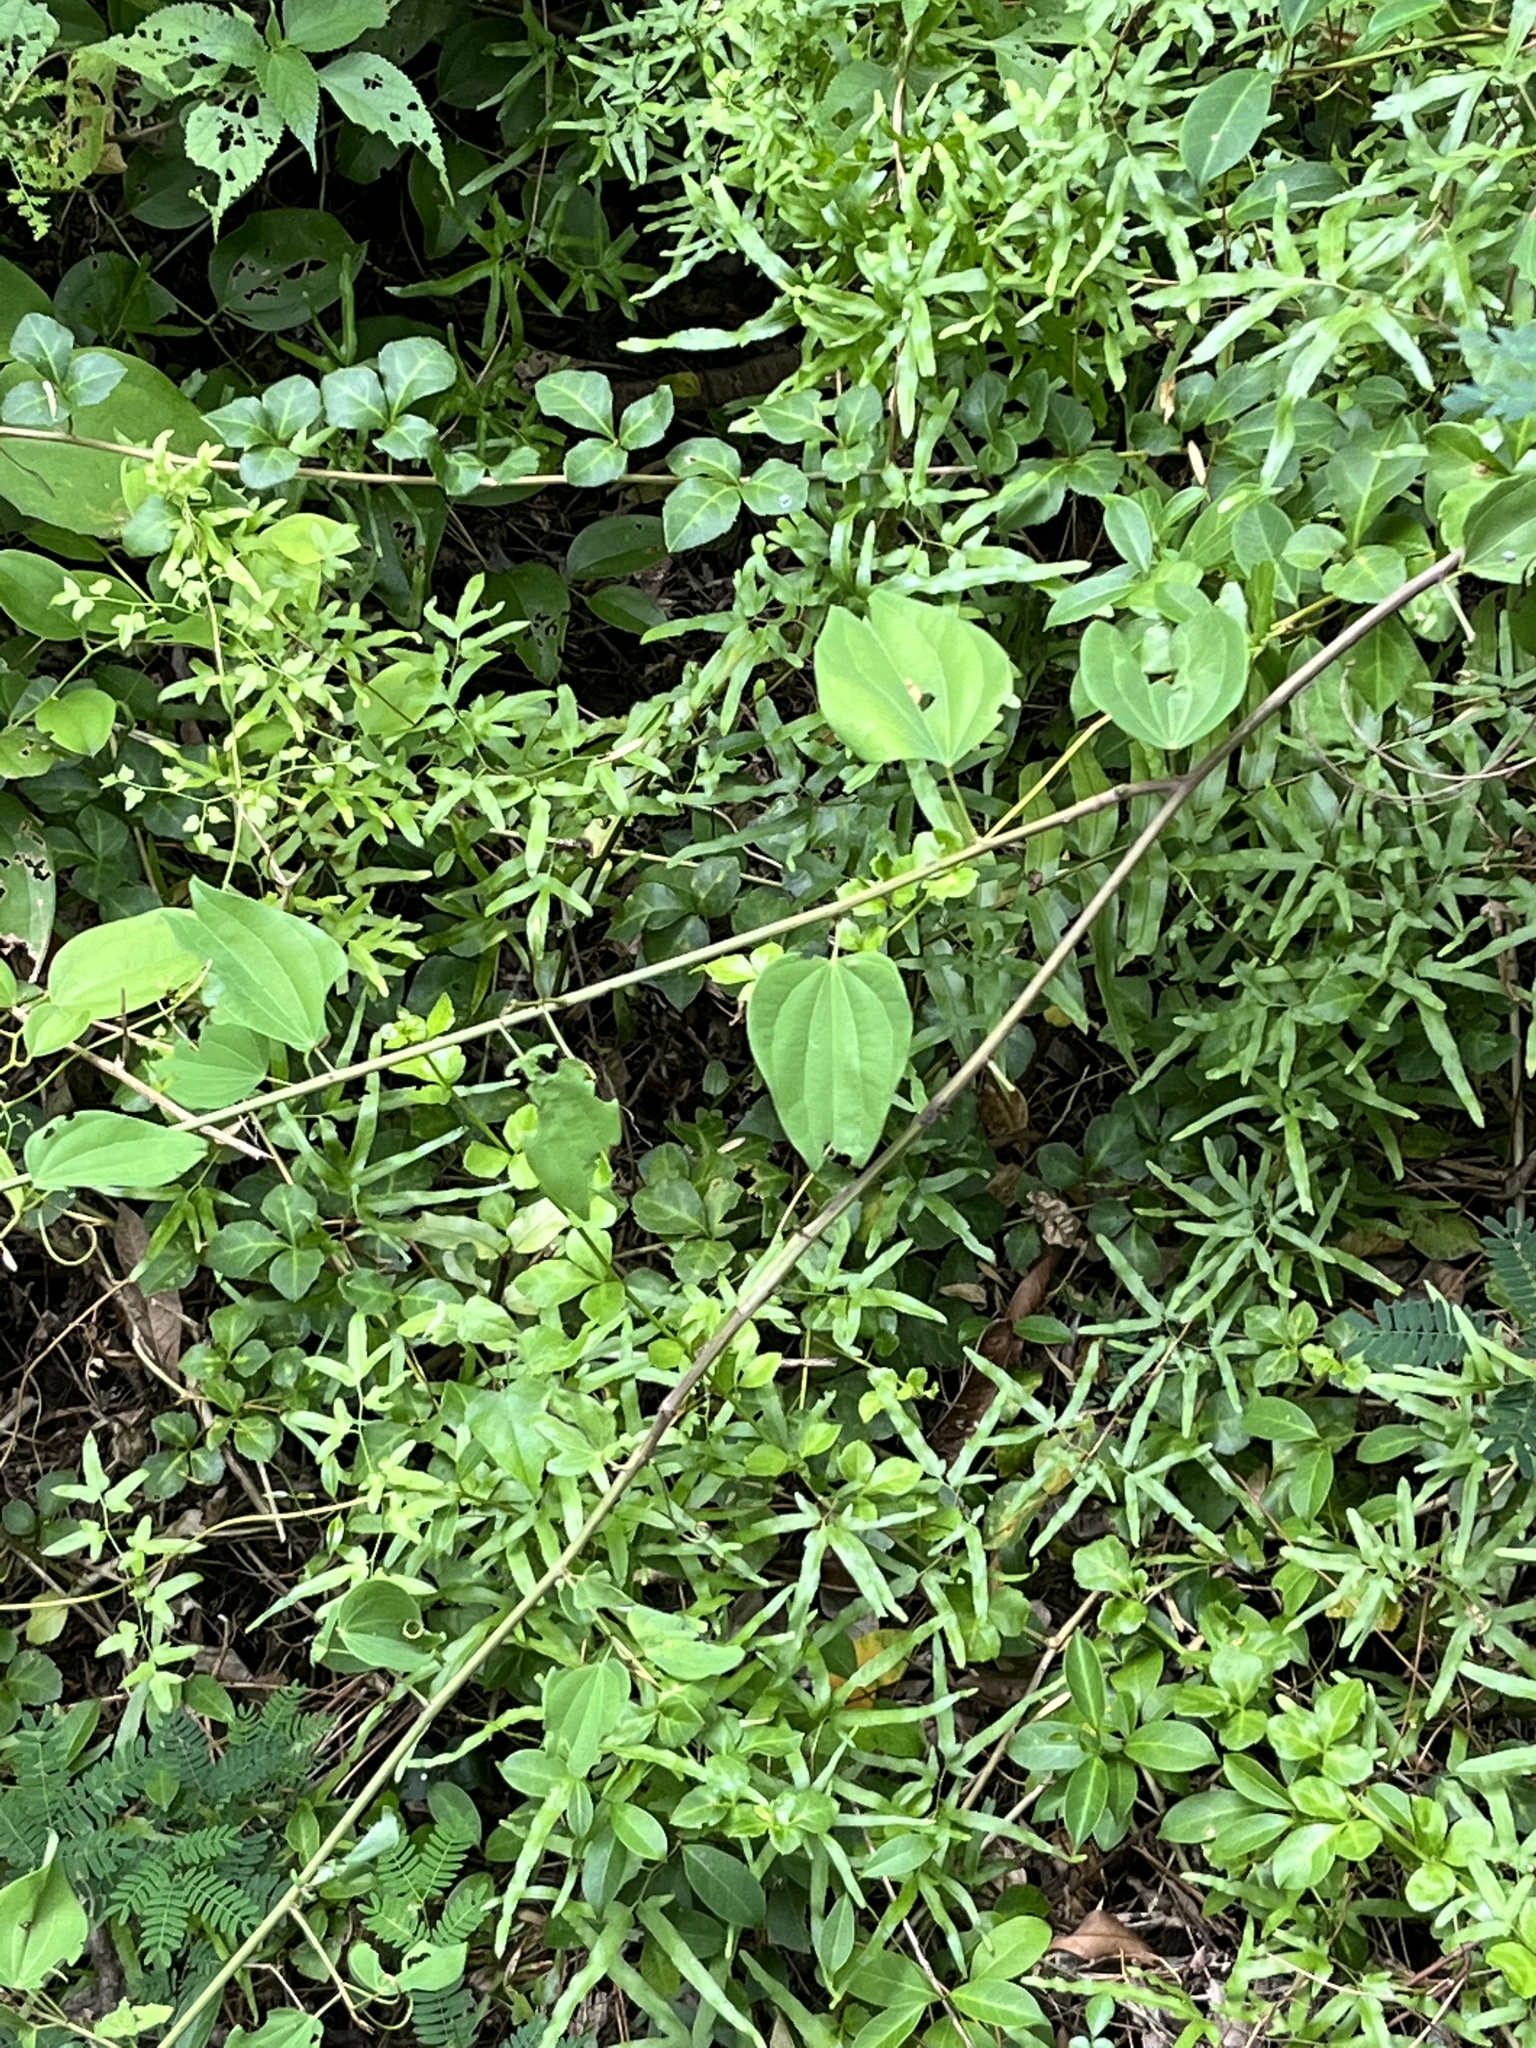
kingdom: Plantae
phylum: Tracheophyta
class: Magnoliopsida
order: Fabales
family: Fabaceae
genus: Phanera
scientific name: Phanera championii
